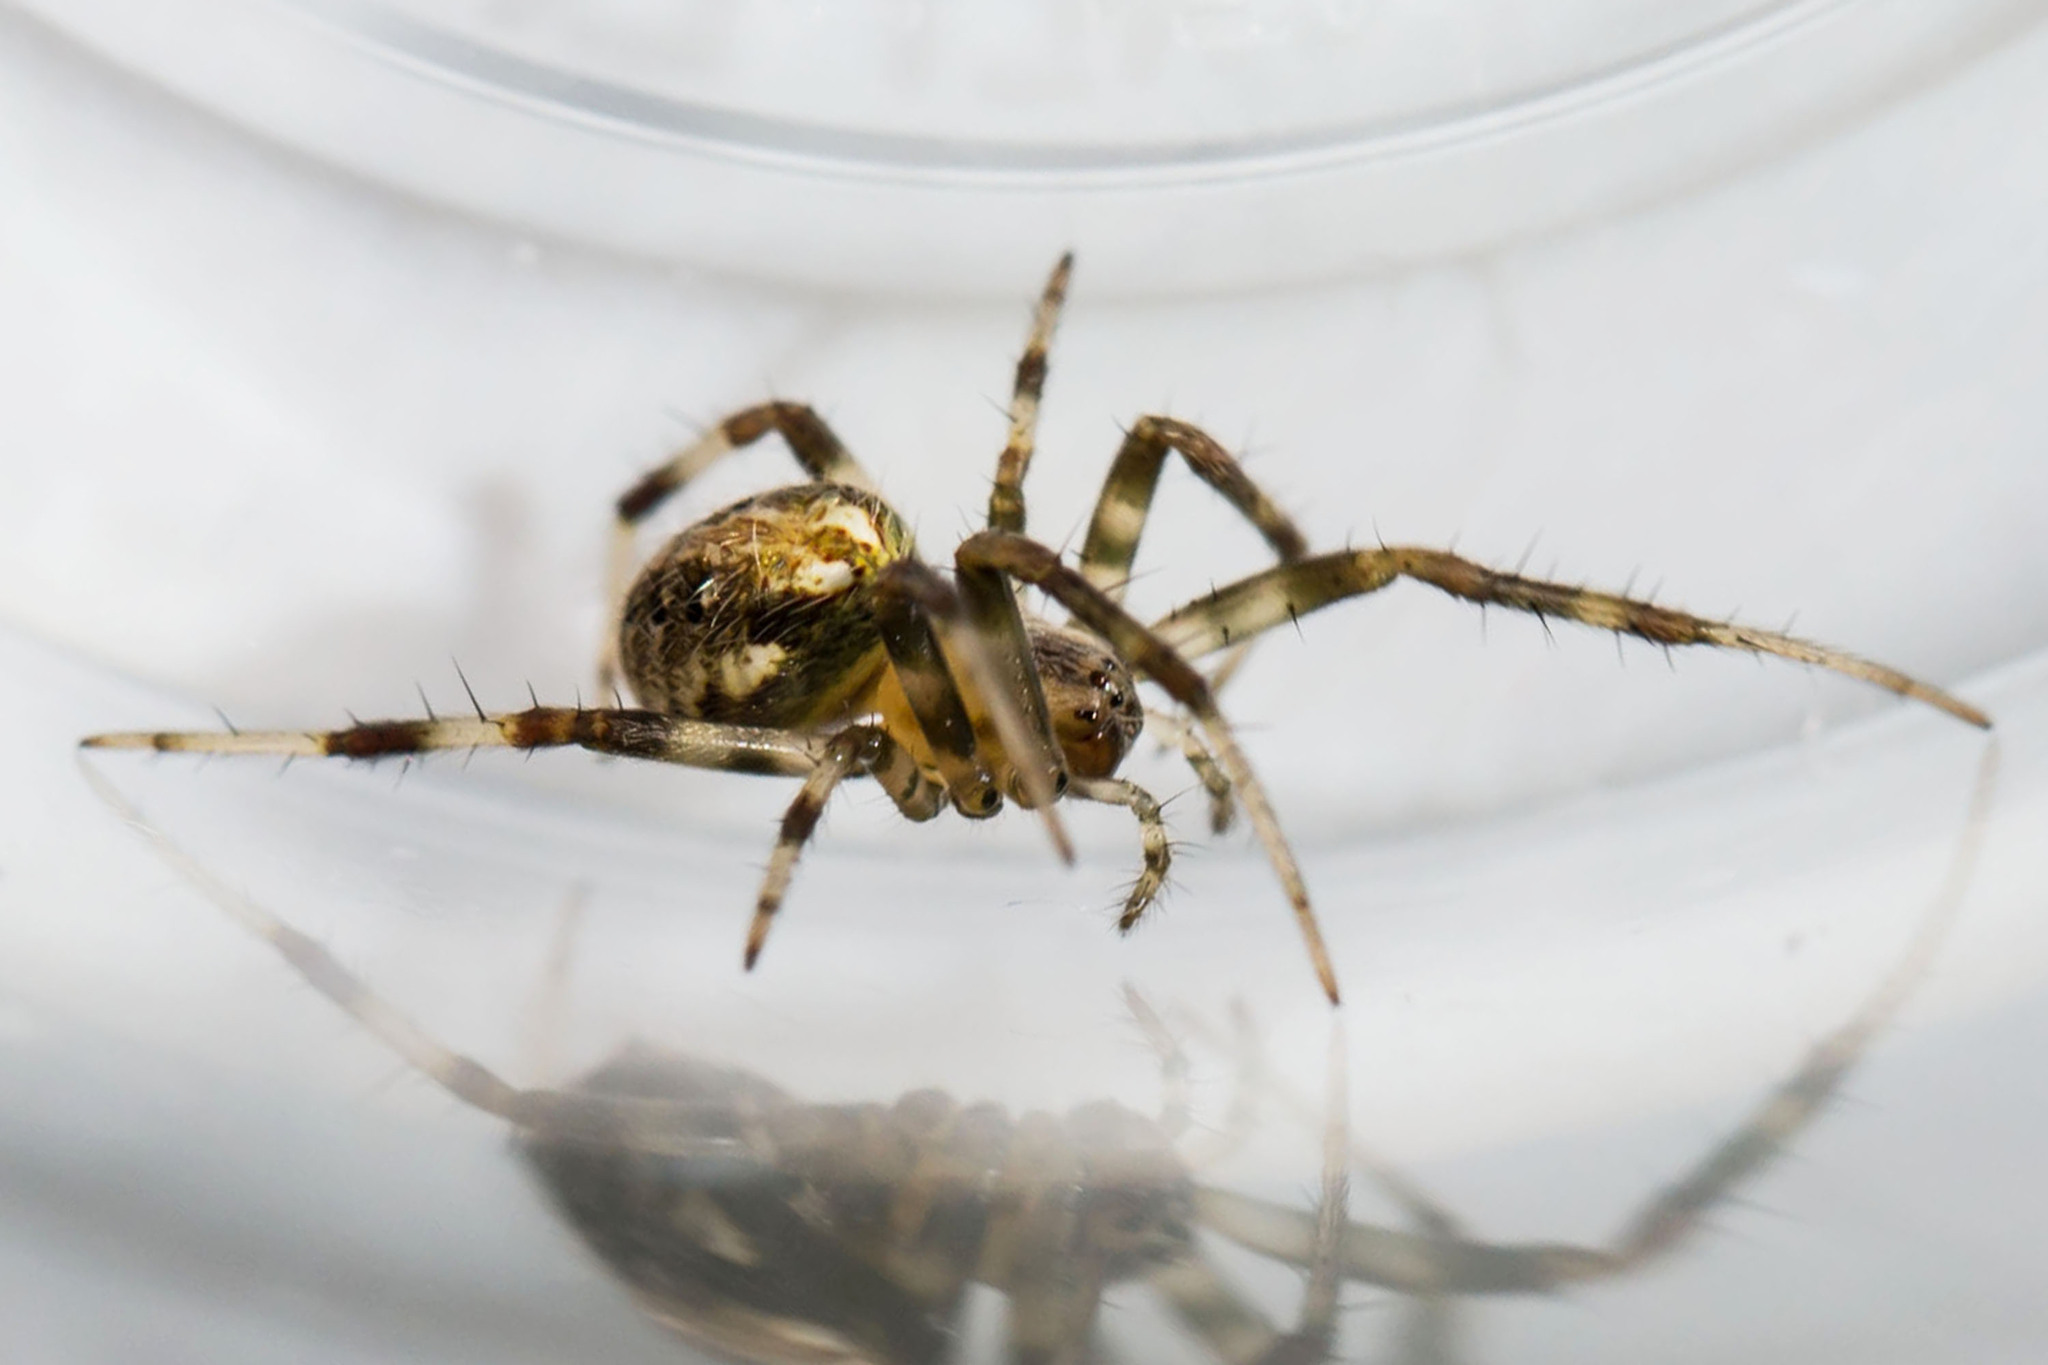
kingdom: Animalia
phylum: Arthropoda
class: Arachnida
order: Araneae
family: Araneidae
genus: Neoscona
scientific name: Neoscona arabesca
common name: Orb weavers
